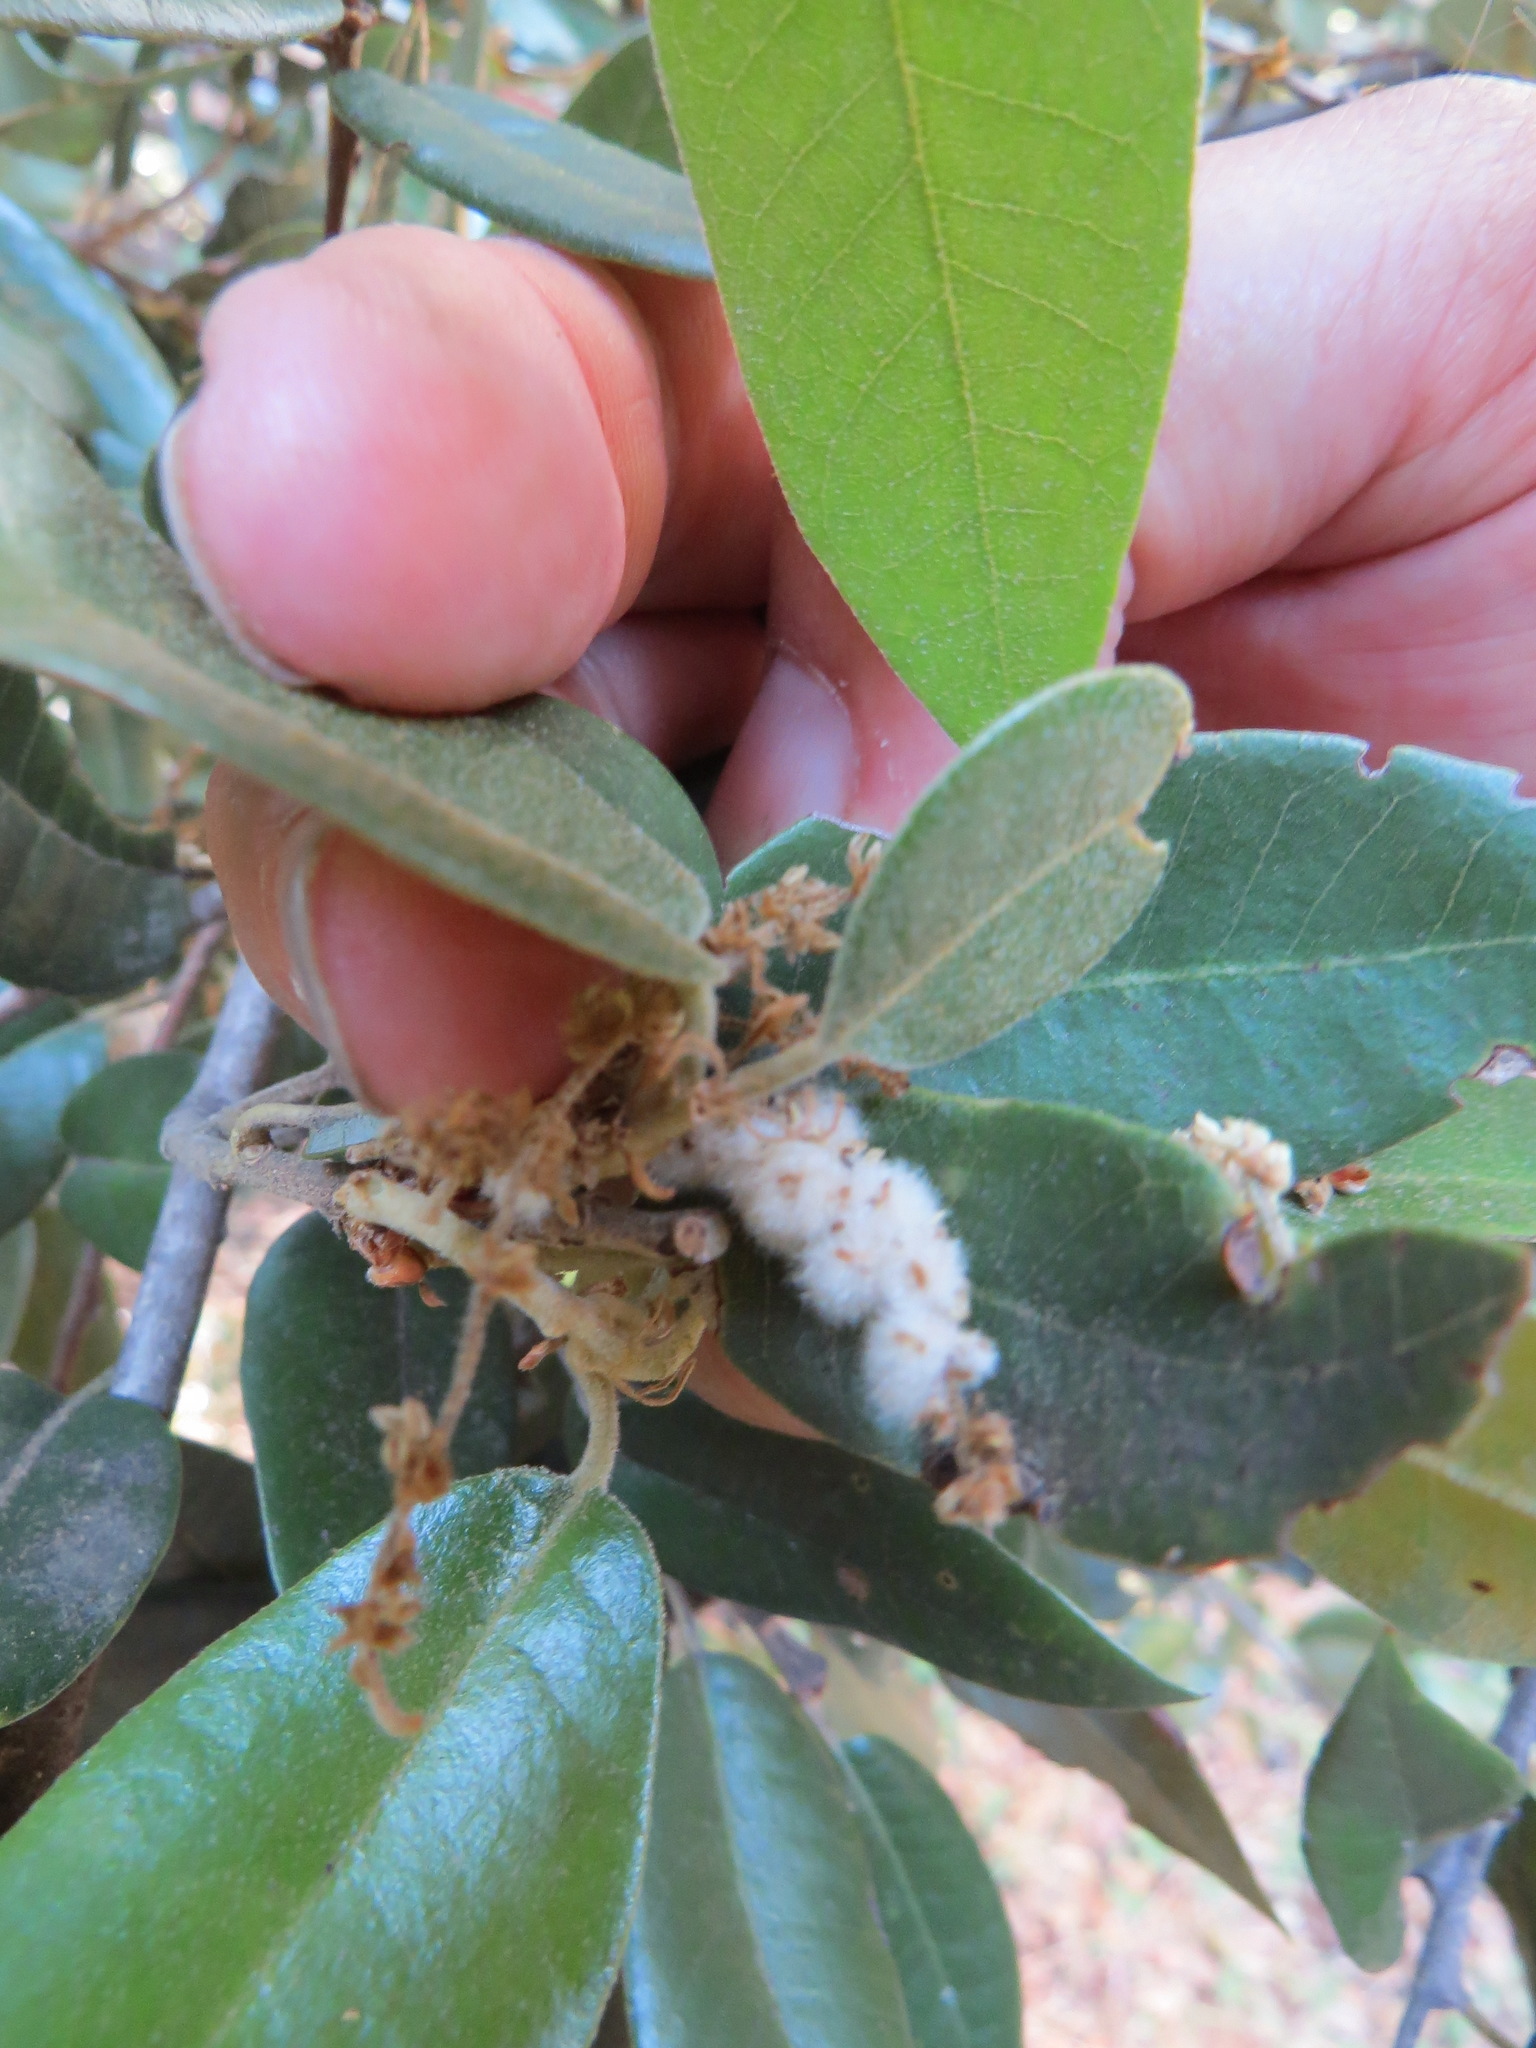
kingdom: Animalia
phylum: Arthropoda
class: Insecta
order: Hymenoptera
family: Cynipidae
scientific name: Cynipidae
